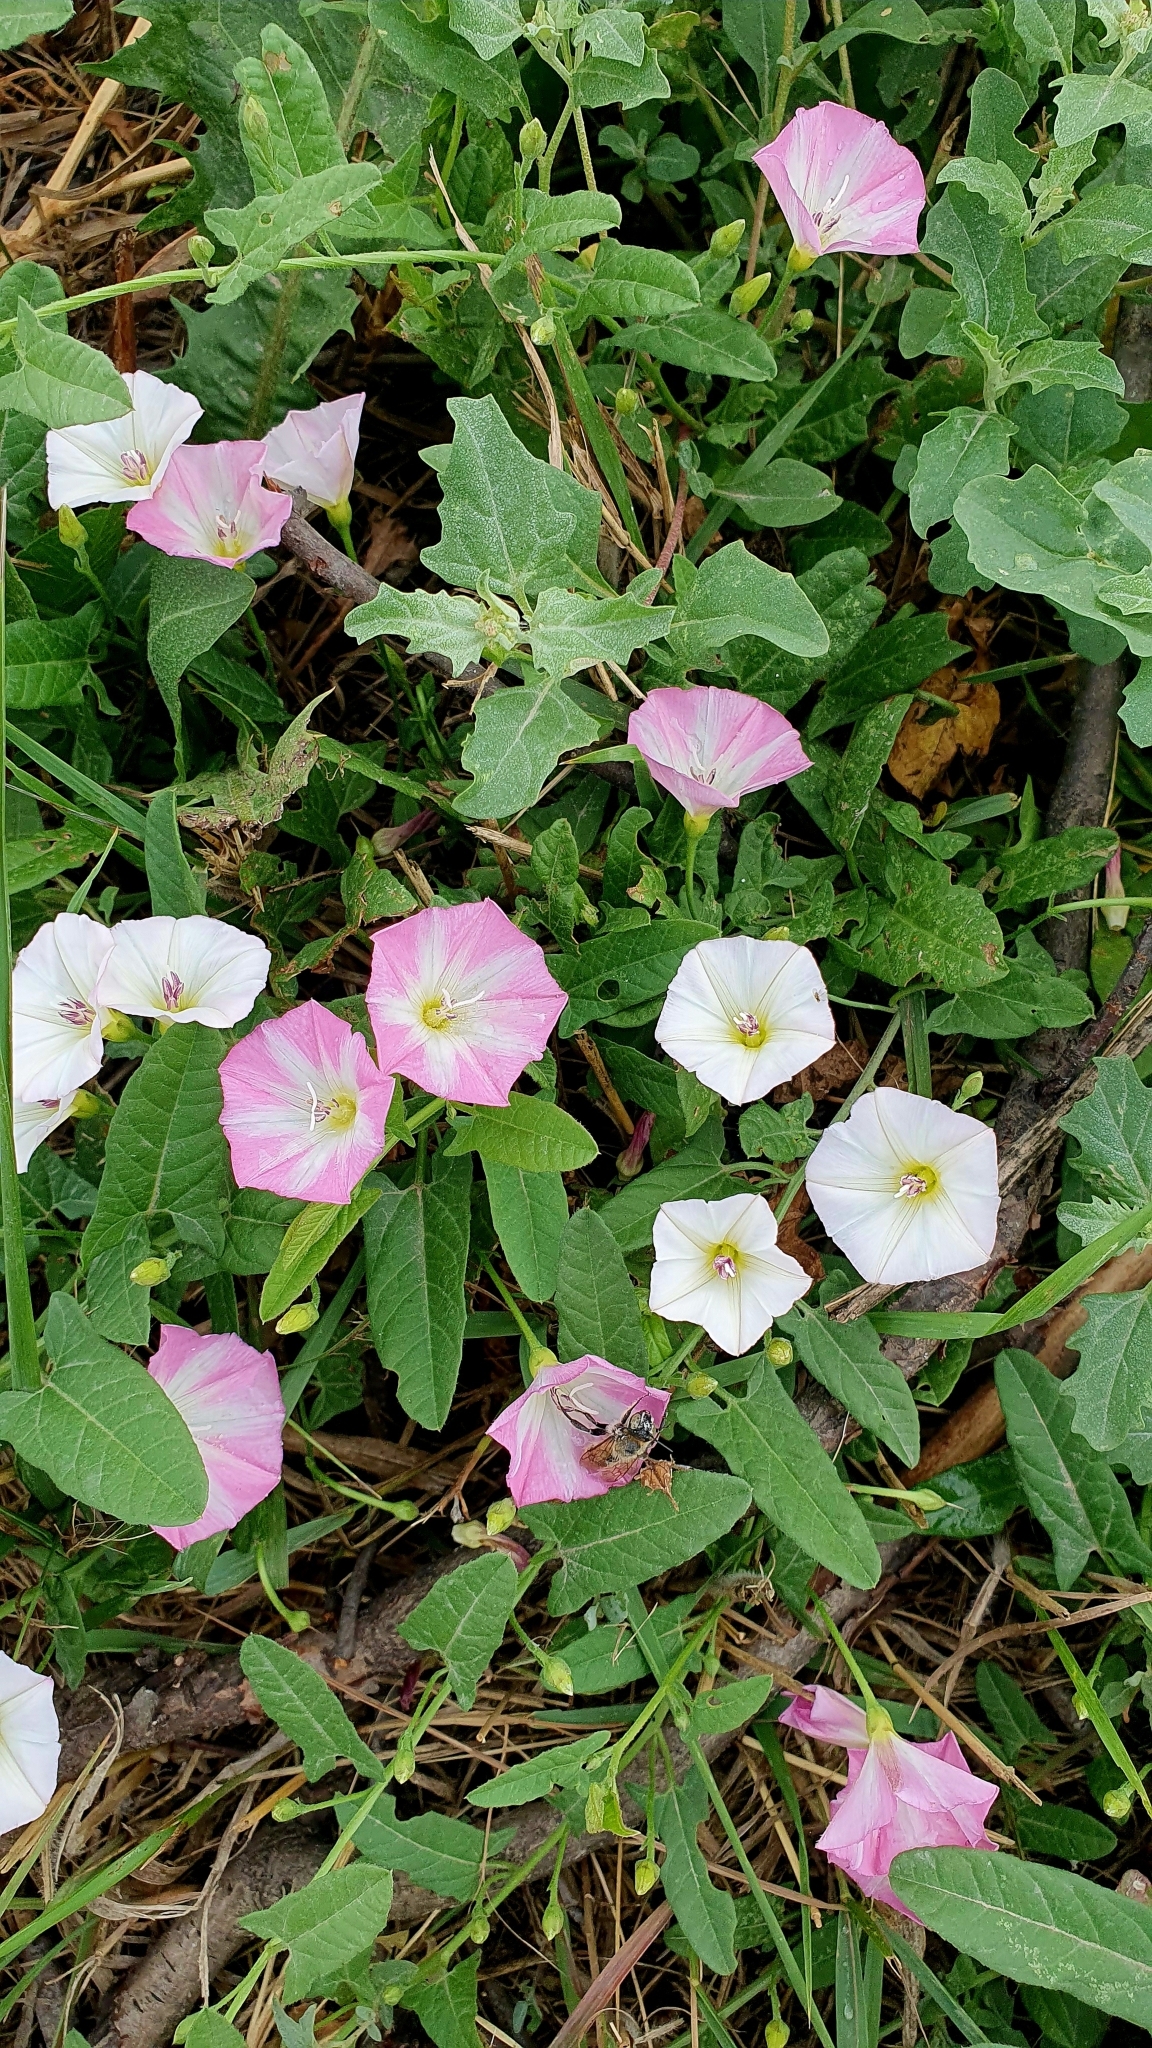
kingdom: Plantae
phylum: Tracheophyta
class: Magnoliopsida
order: Solanales
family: Convolvulaceae
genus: Convolvulus
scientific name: Convolvulus arvensis
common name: Field bindweed
